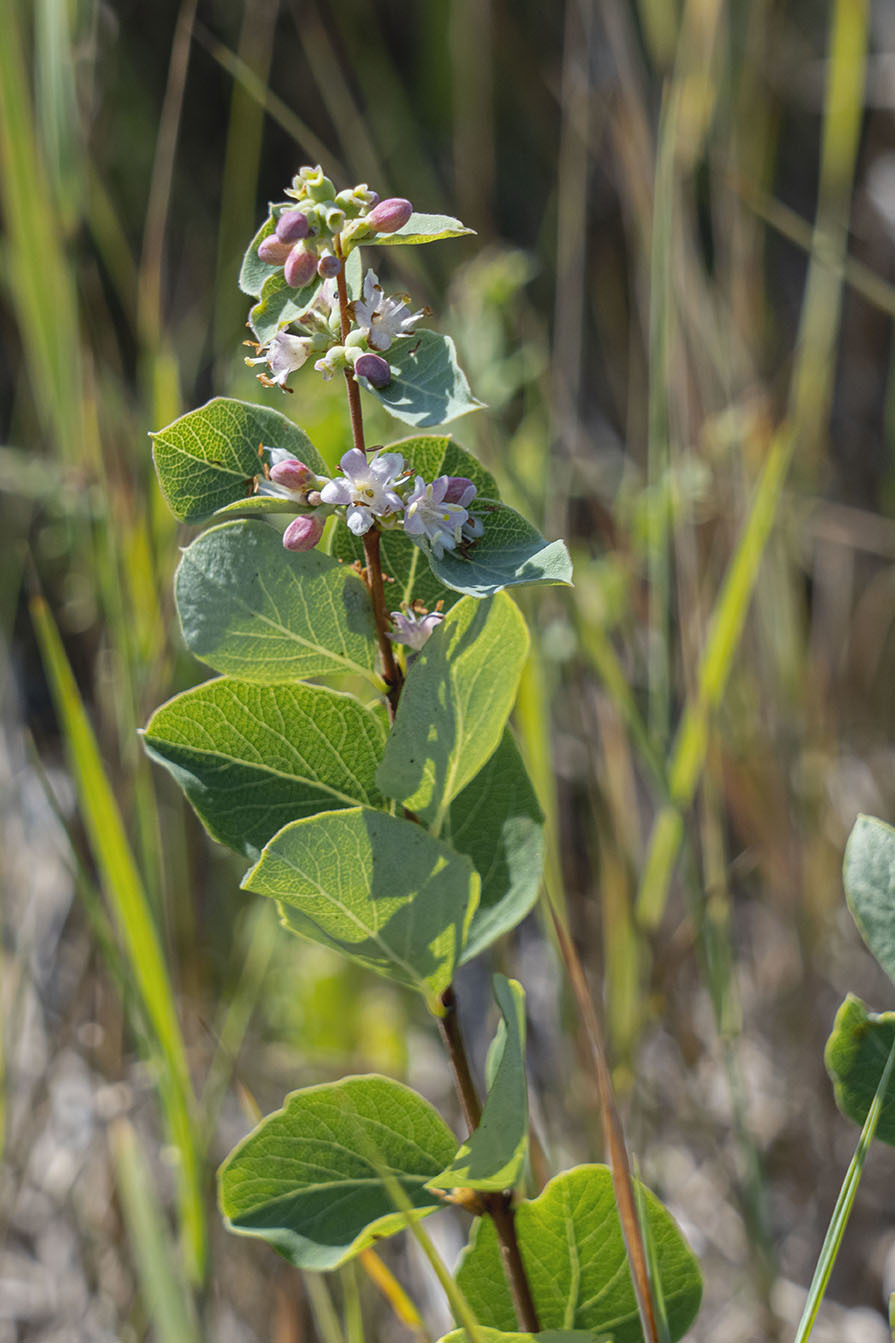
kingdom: Plantae
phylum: Tracheophyta
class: Magnoliopsida
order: Dipsacales
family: Caprifoliaceae
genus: Symphoricarpos
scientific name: Symphoricarpos occidentalis
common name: Wolfberry
